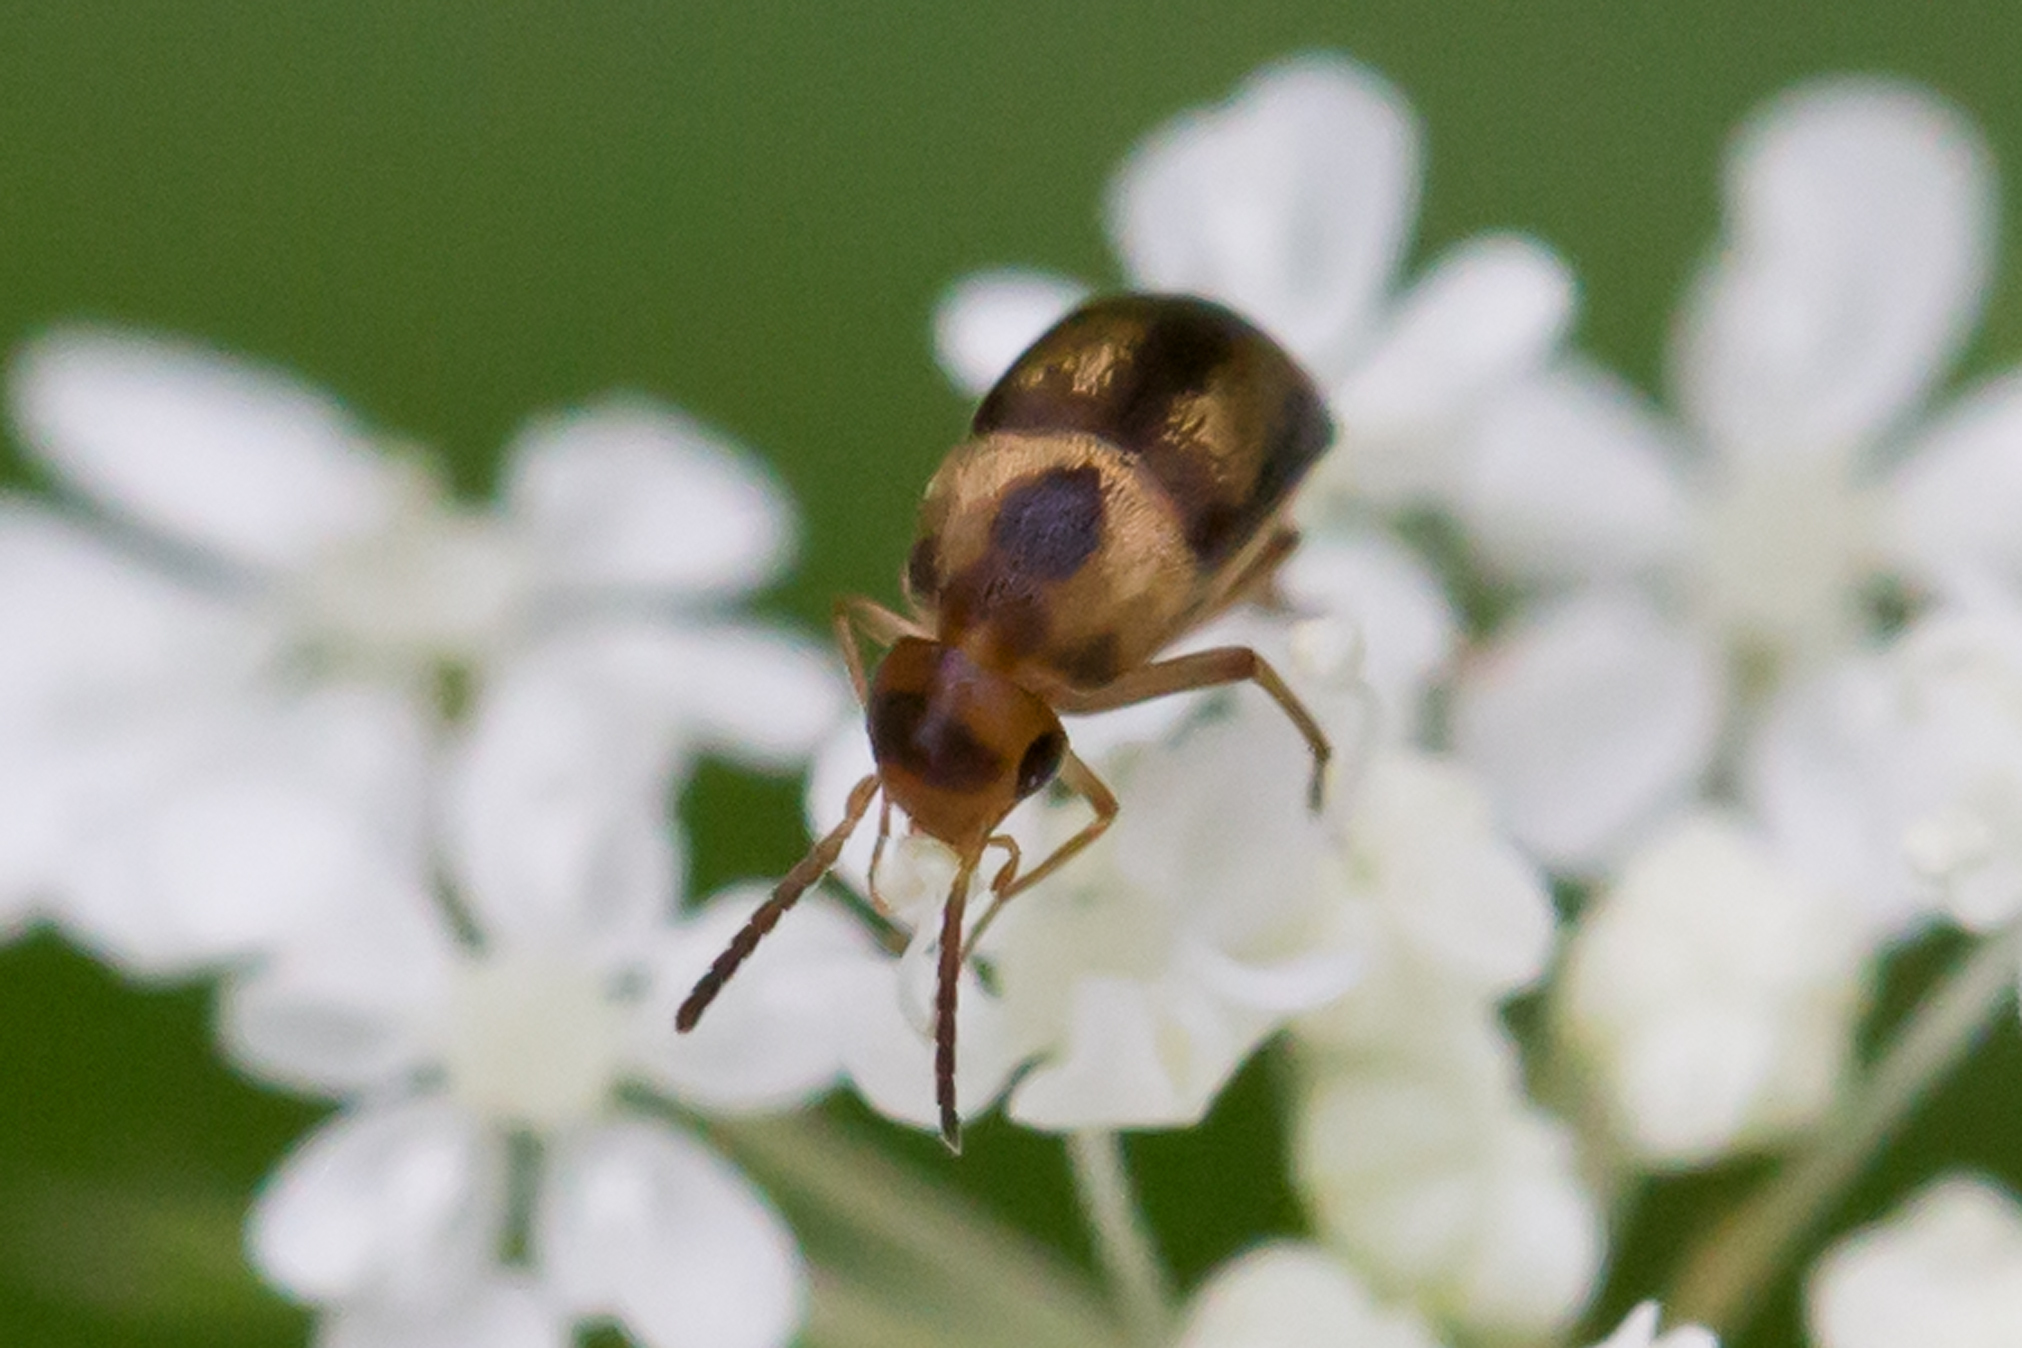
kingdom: Animalia
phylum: Arthropoda
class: Insecta
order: Coleoptera
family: Mordellidae
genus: Mordellistena
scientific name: Mordellistena limbalis
